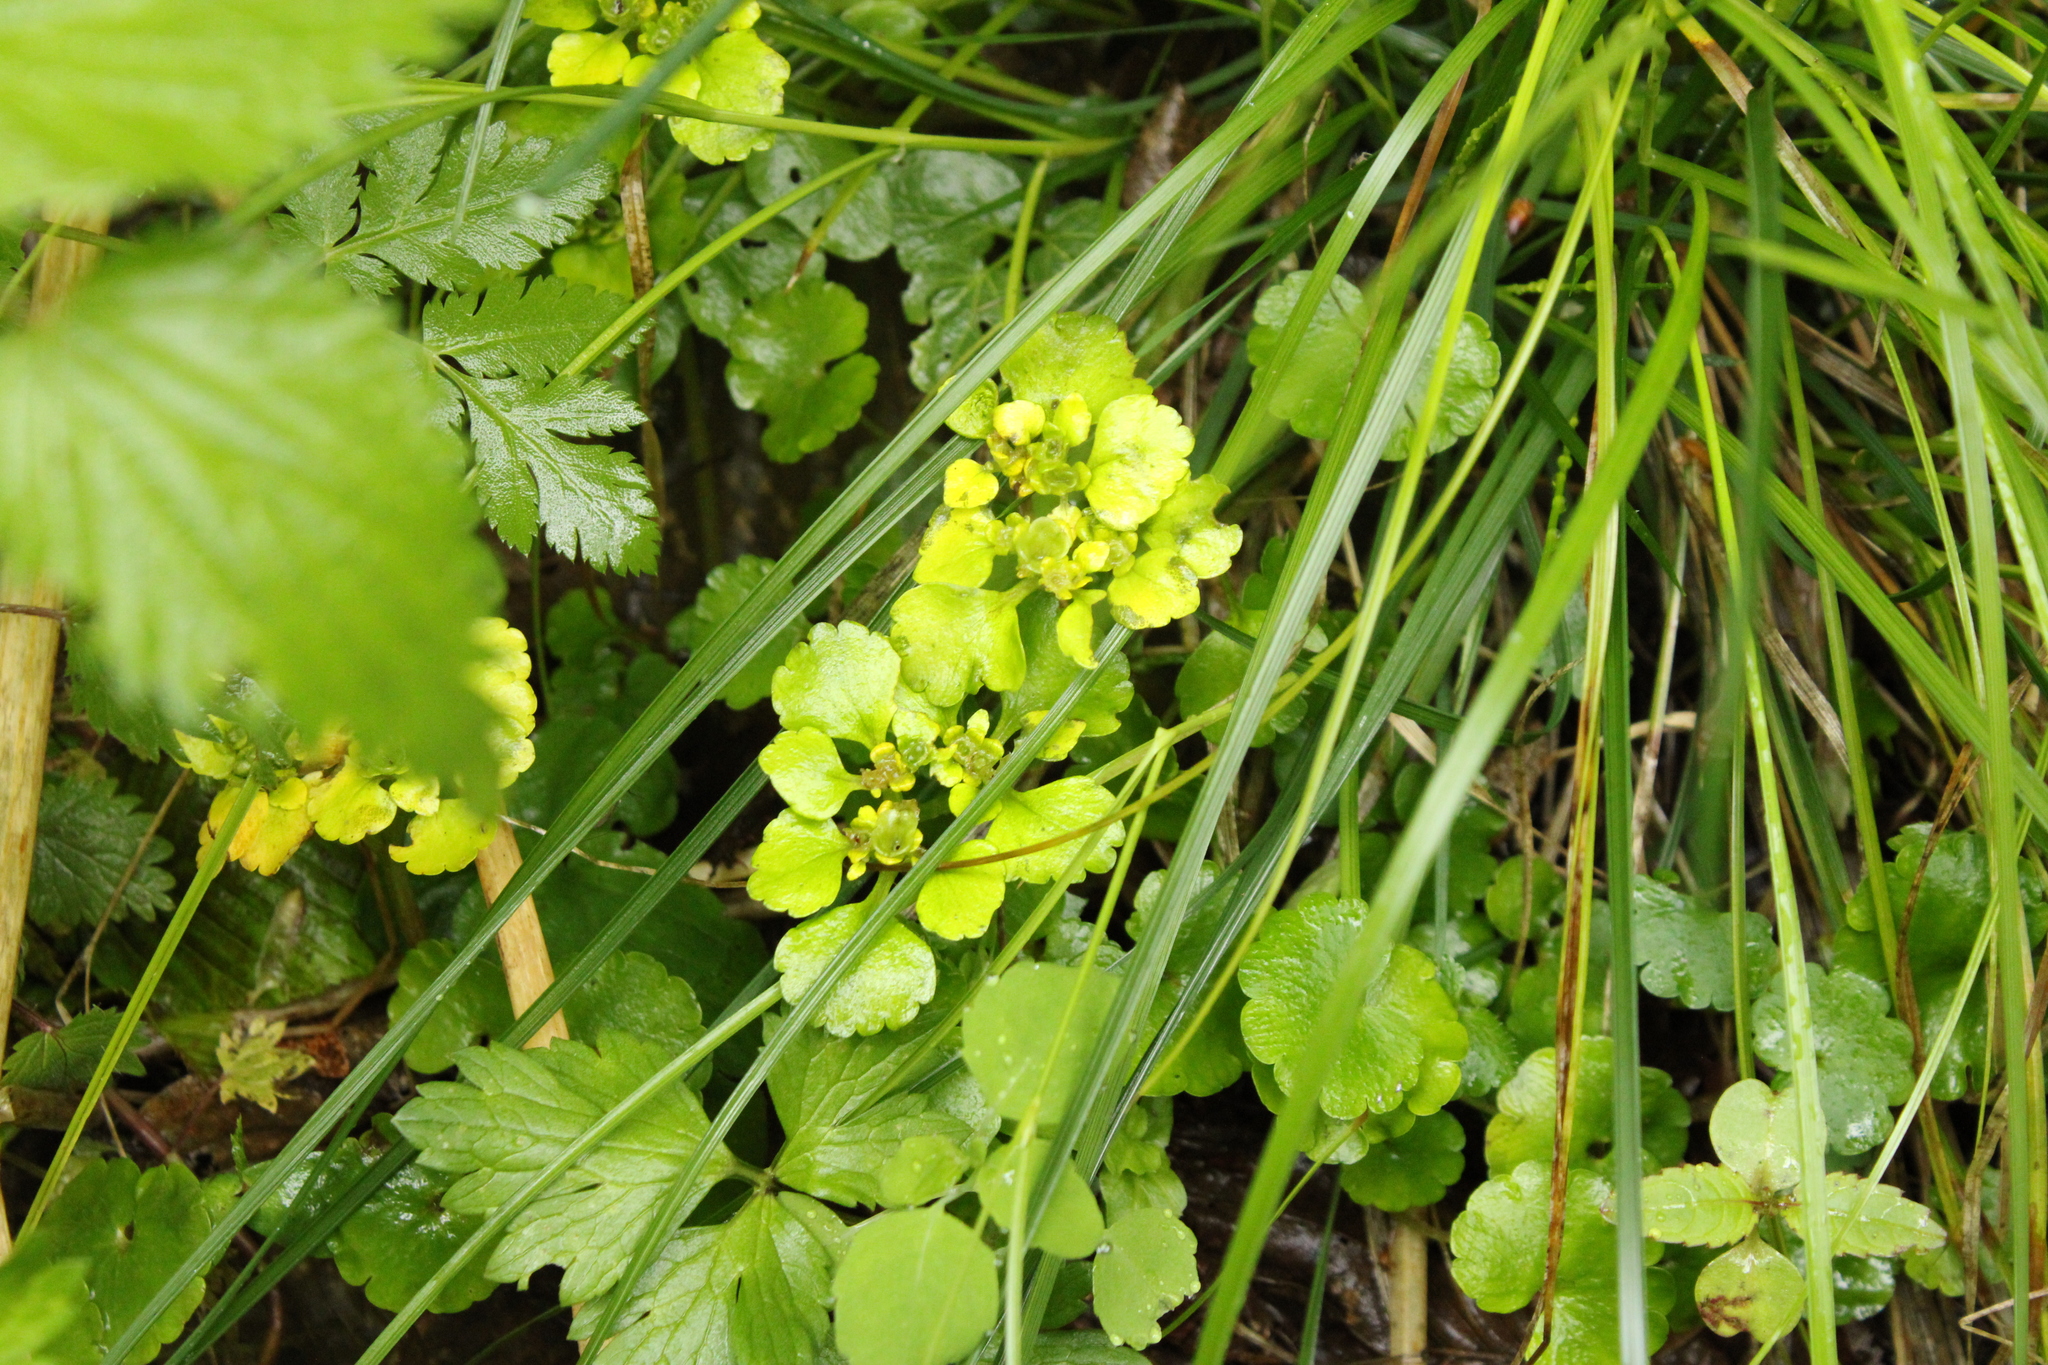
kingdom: Plantae
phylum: Tracheophyta
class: Magnoliopsida
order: Saxifragales
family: Saxifragaceae
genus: Chrysosplenium
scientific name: Chrysosplenium alternifolium
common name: Alternate-leaved golden-saxifrage
